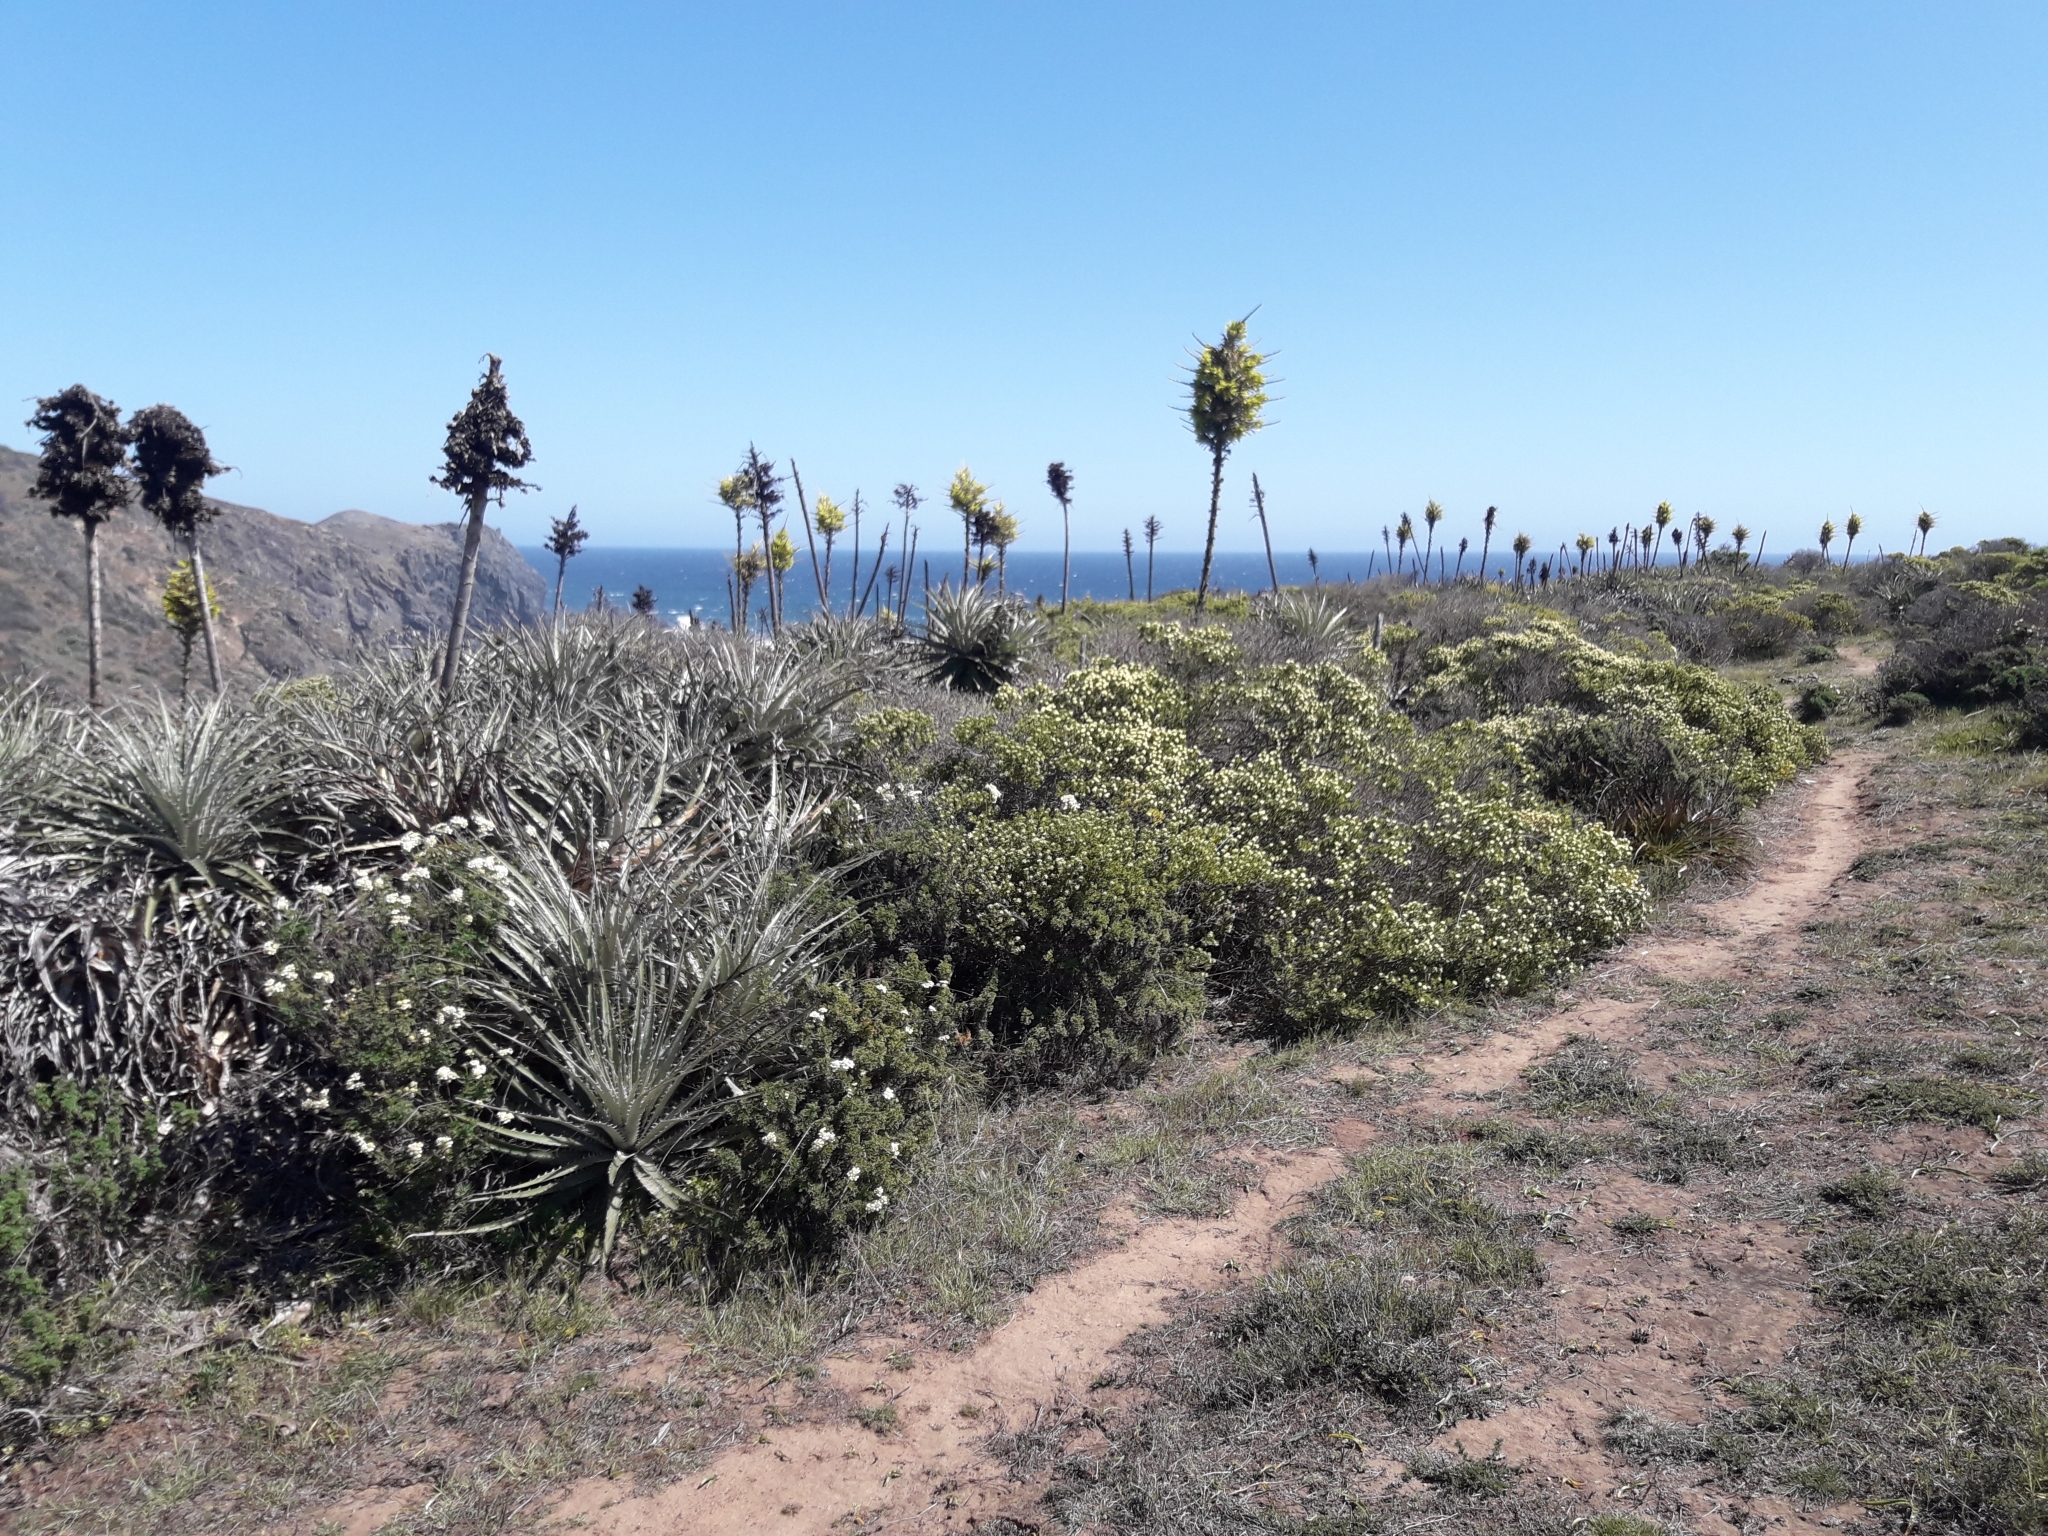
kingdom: Plantae
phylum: Tracheophyta
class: Liliopsida
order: Poales
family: Bromeliaceae
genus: Puya
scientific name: Puya chilensis
